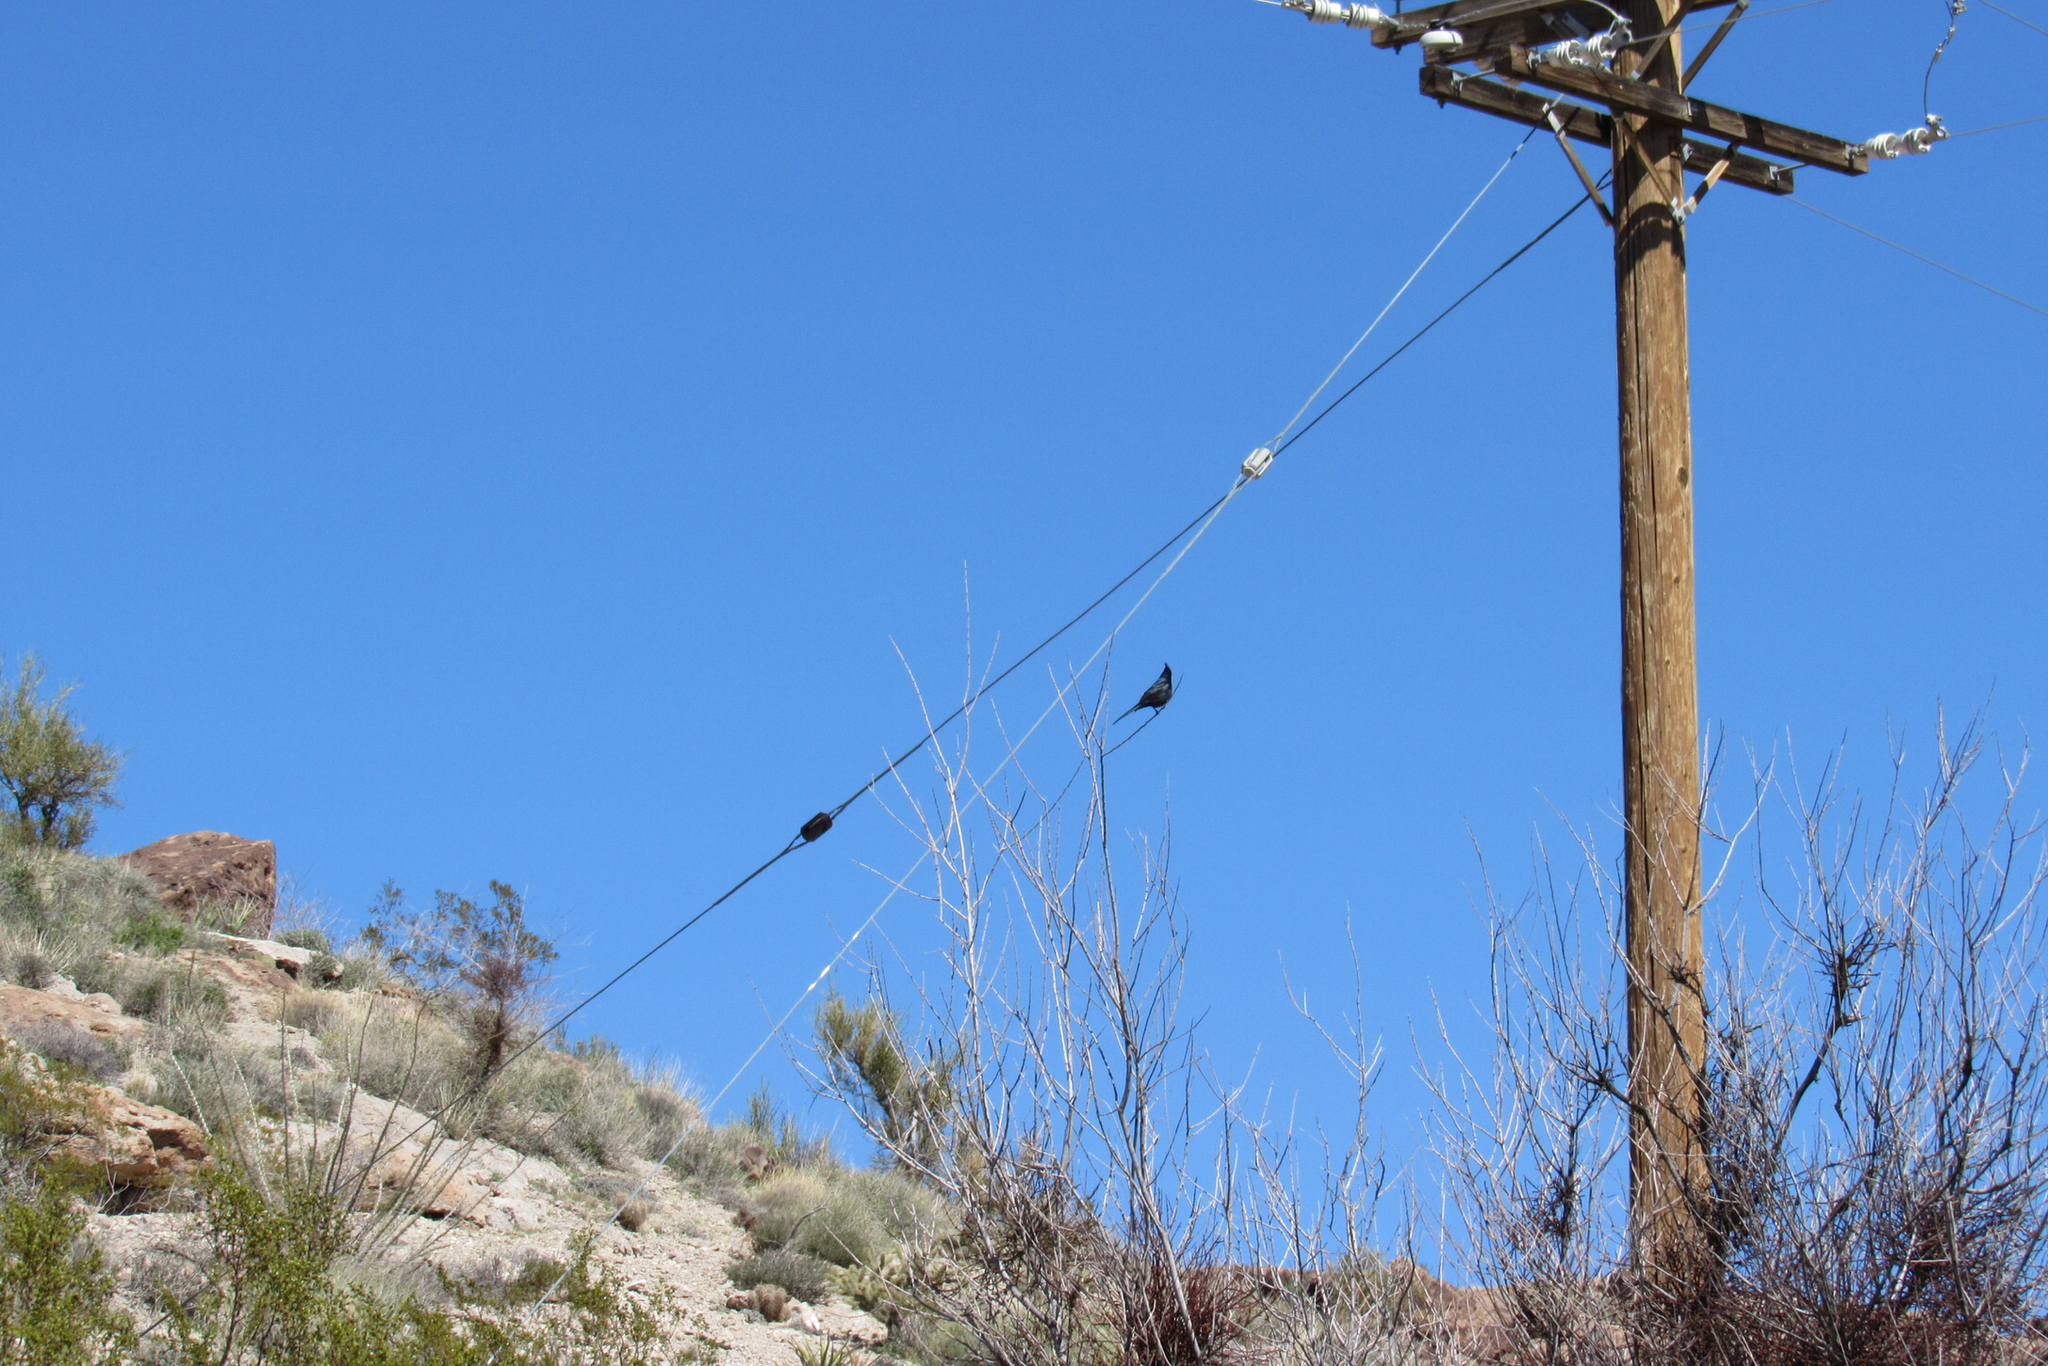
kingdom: Animalia
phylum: Chordata
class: Aves
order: Passeriformes
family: Ptilogonatidae
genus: Phainopepla
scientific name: Phainopepla nitens
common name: Phainopepla
